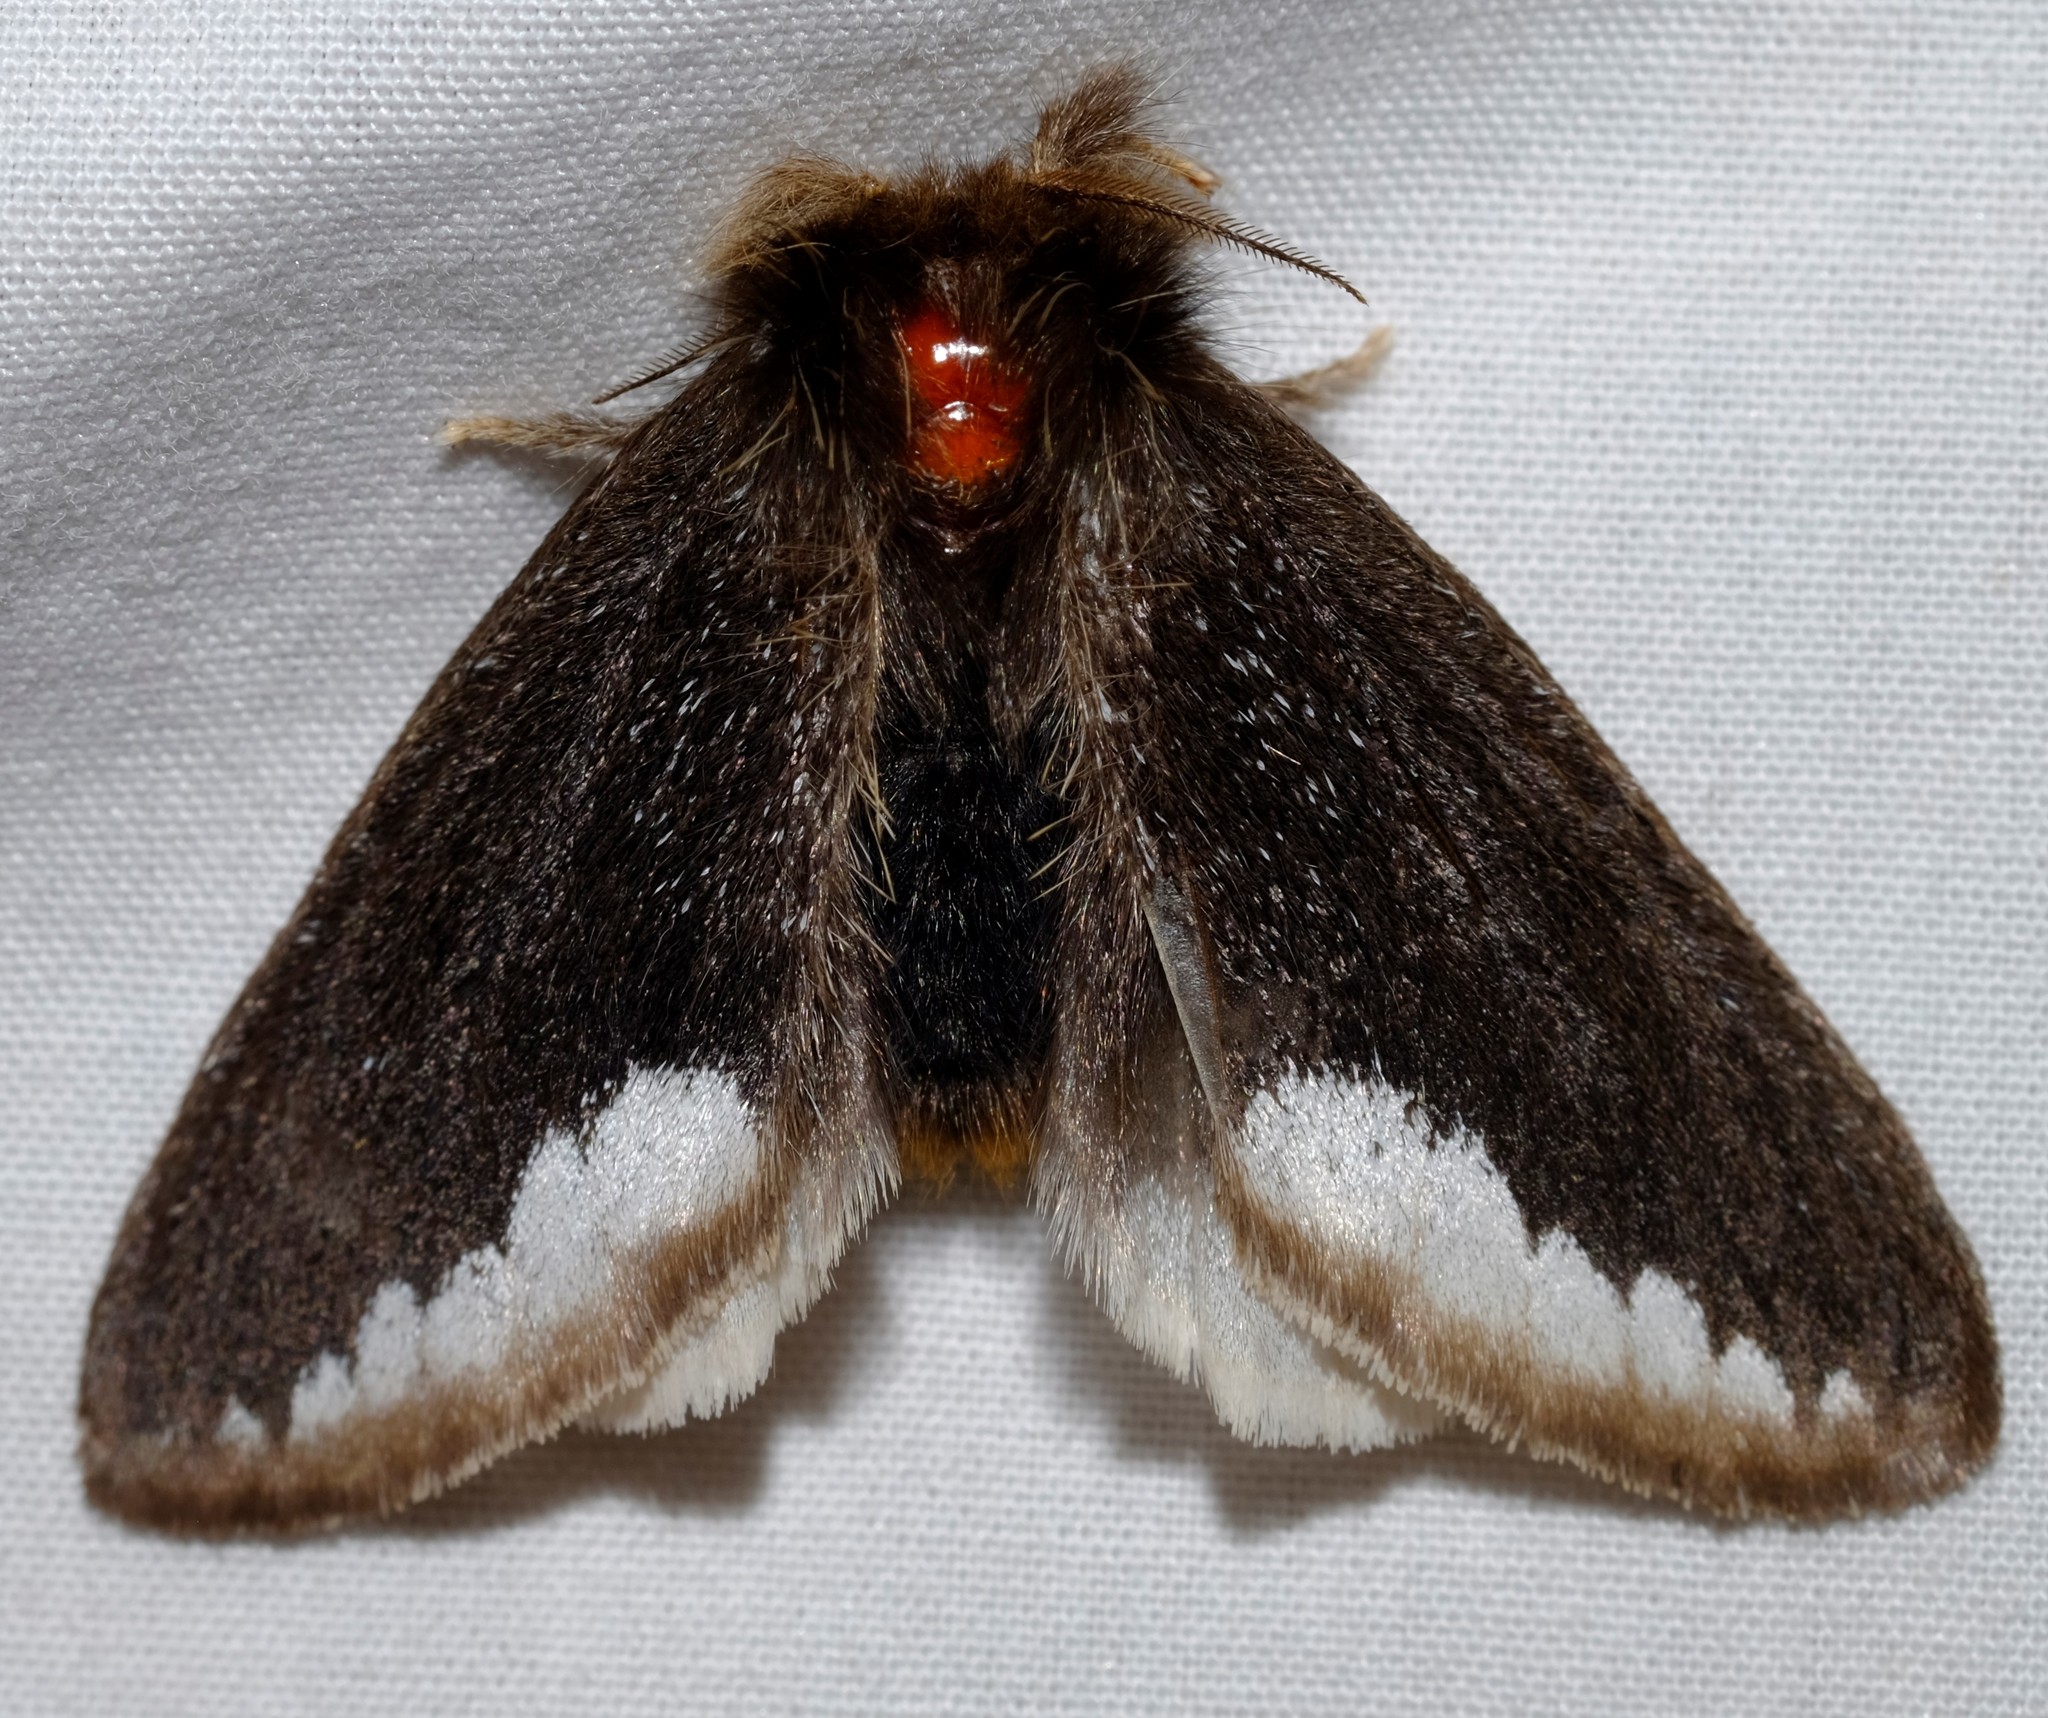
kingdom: Animalia
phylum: Arthropoda
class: Insecta
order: Lepidoptera
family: Erebidae
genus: Euproctis
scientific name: Euproctis
